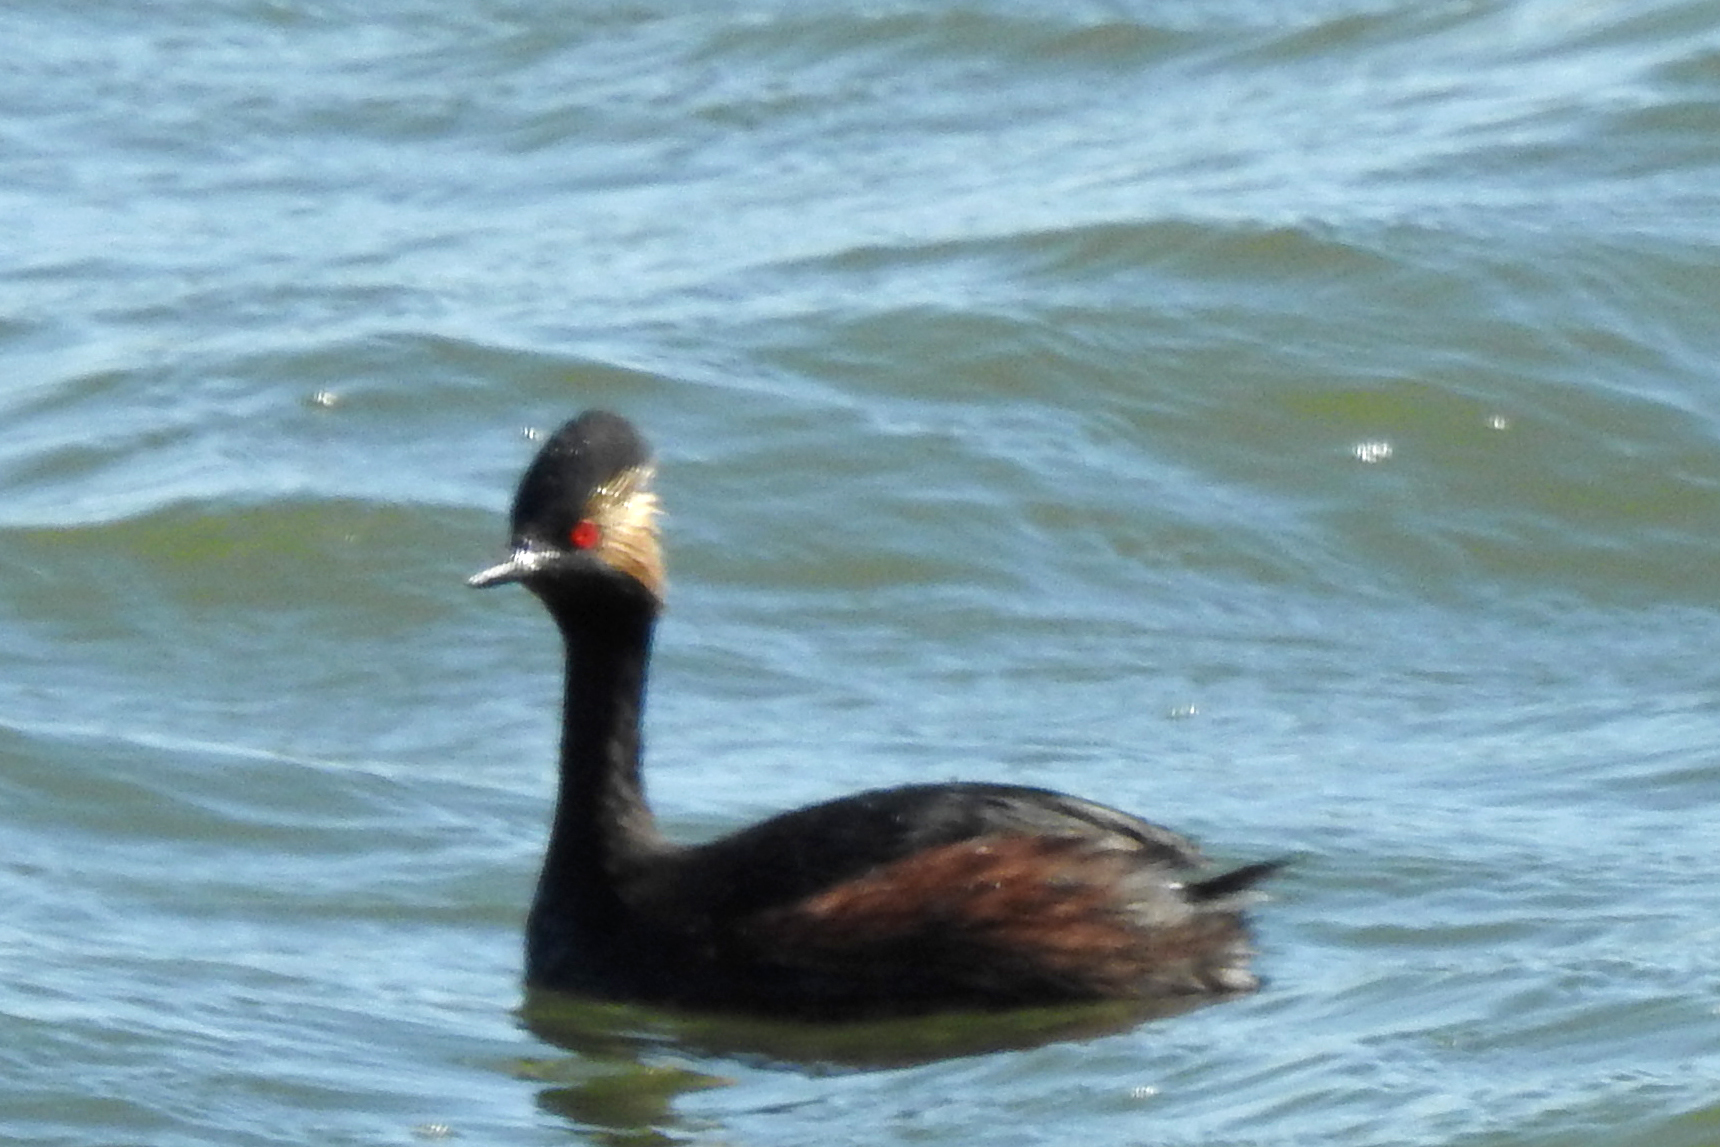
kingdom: Animalia
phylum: Chordata
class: Aves
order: Podicipediformes
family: Podicipedidae
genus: Podiceps
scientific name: Podiceps nigricollis
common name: Black-necked grebe
